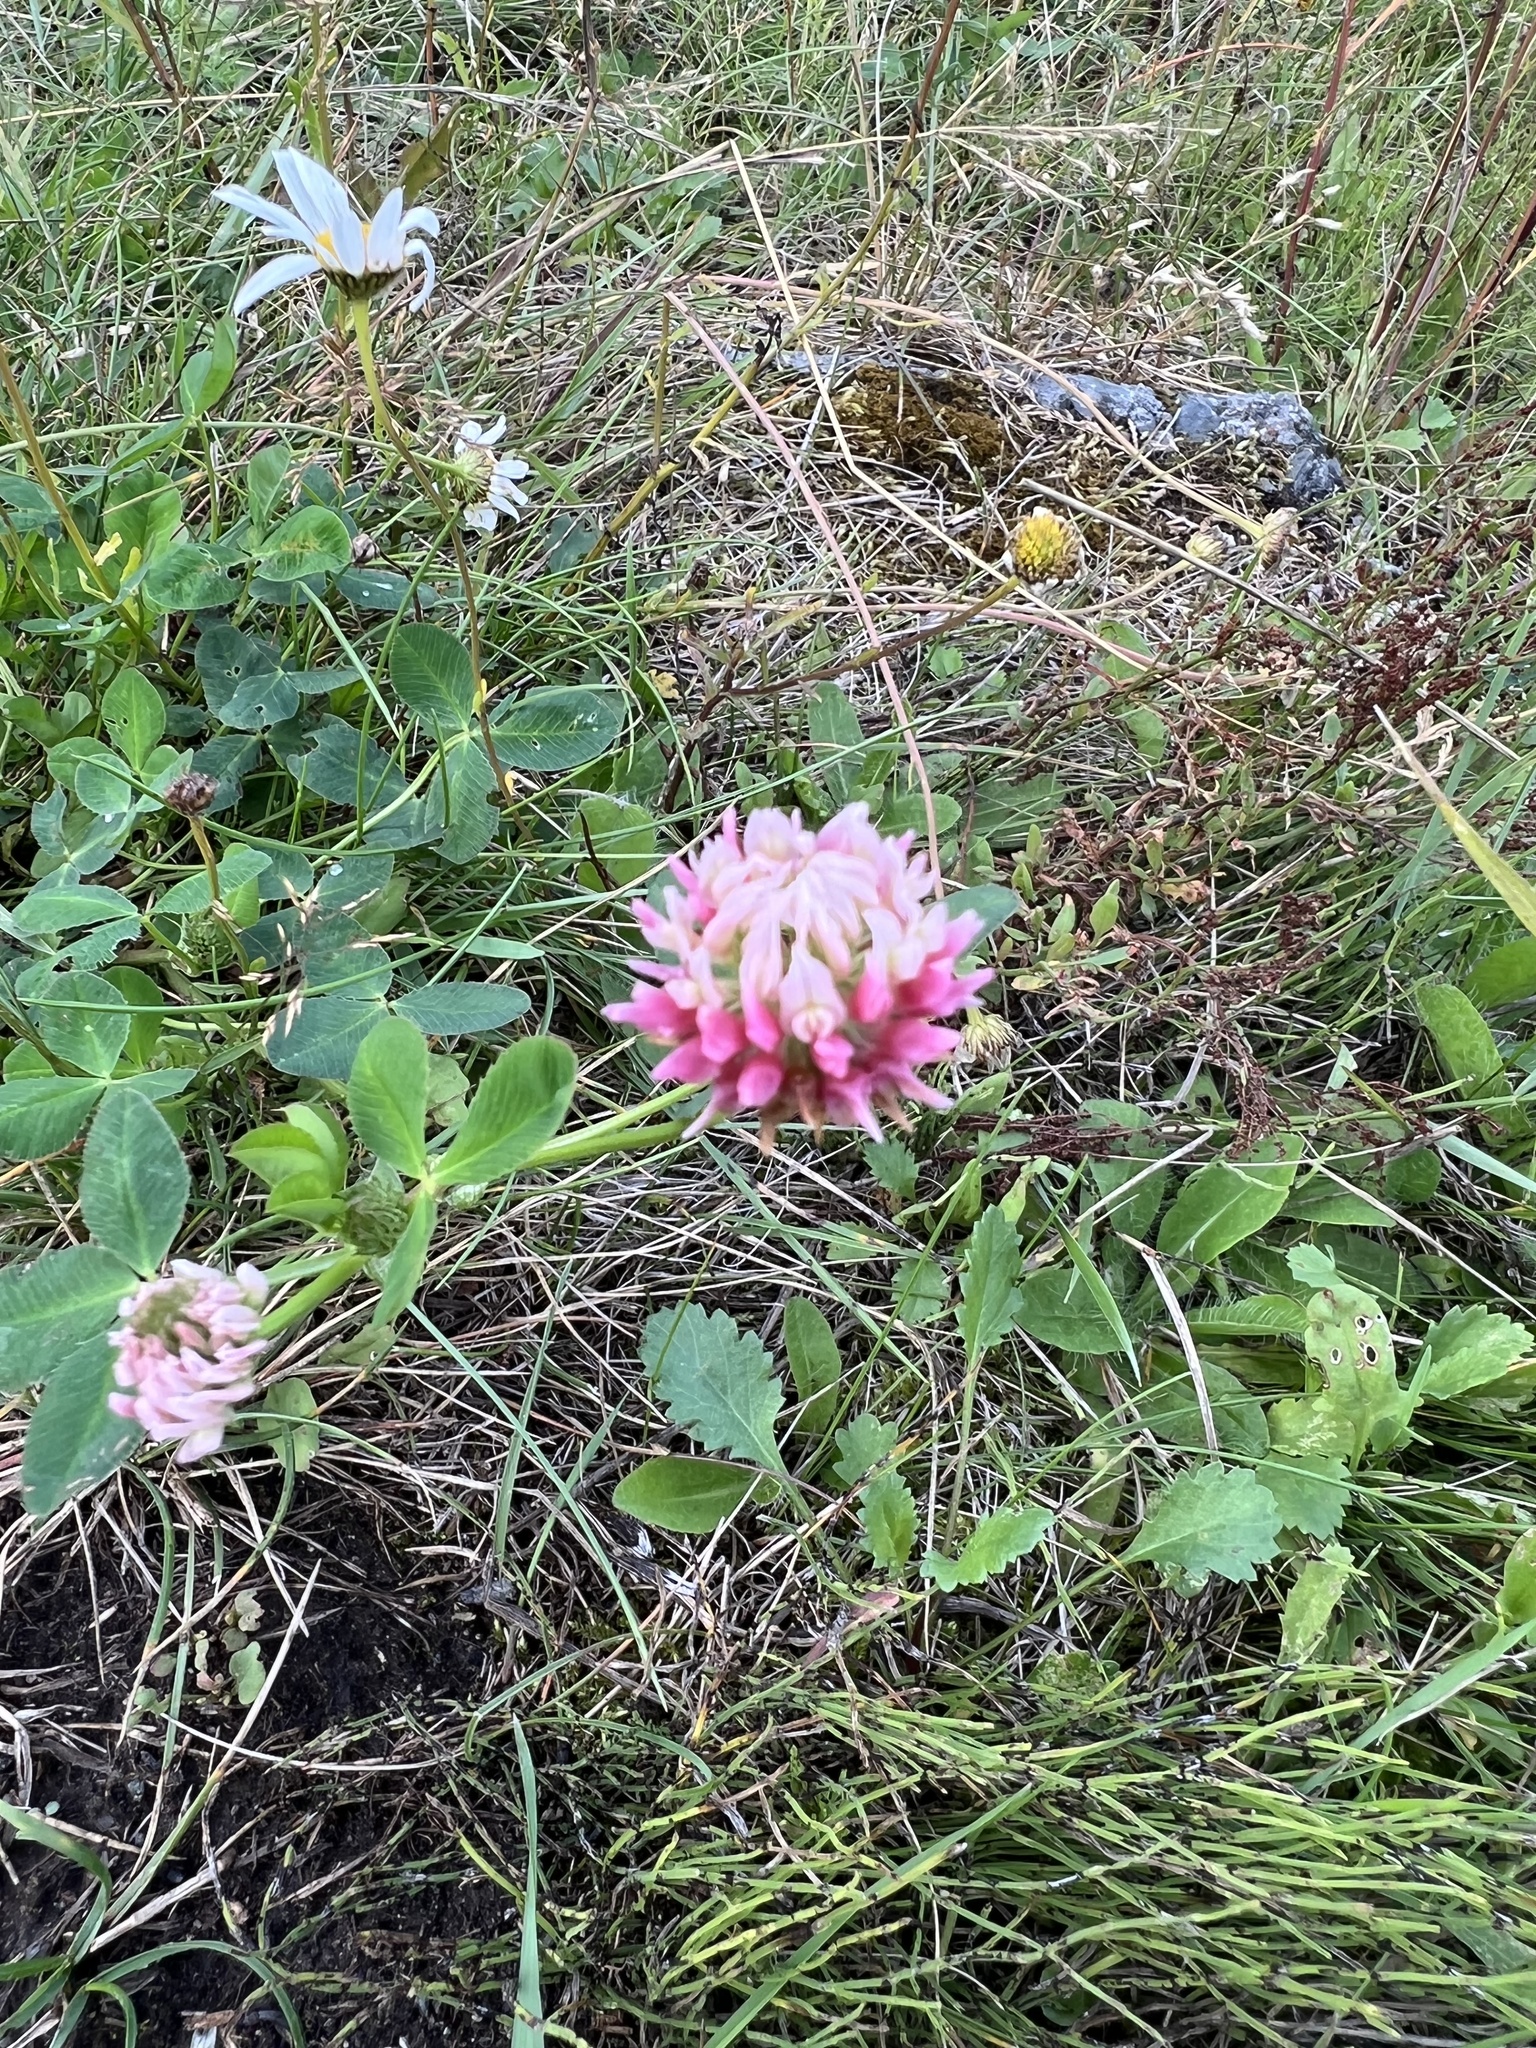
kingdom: Plantae
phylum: Tracheophyta
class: Magnoliopsida
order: Fabales
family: Fabaceae
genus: Trifolium
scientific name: Trifolium hybridum
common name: Alsike clover
